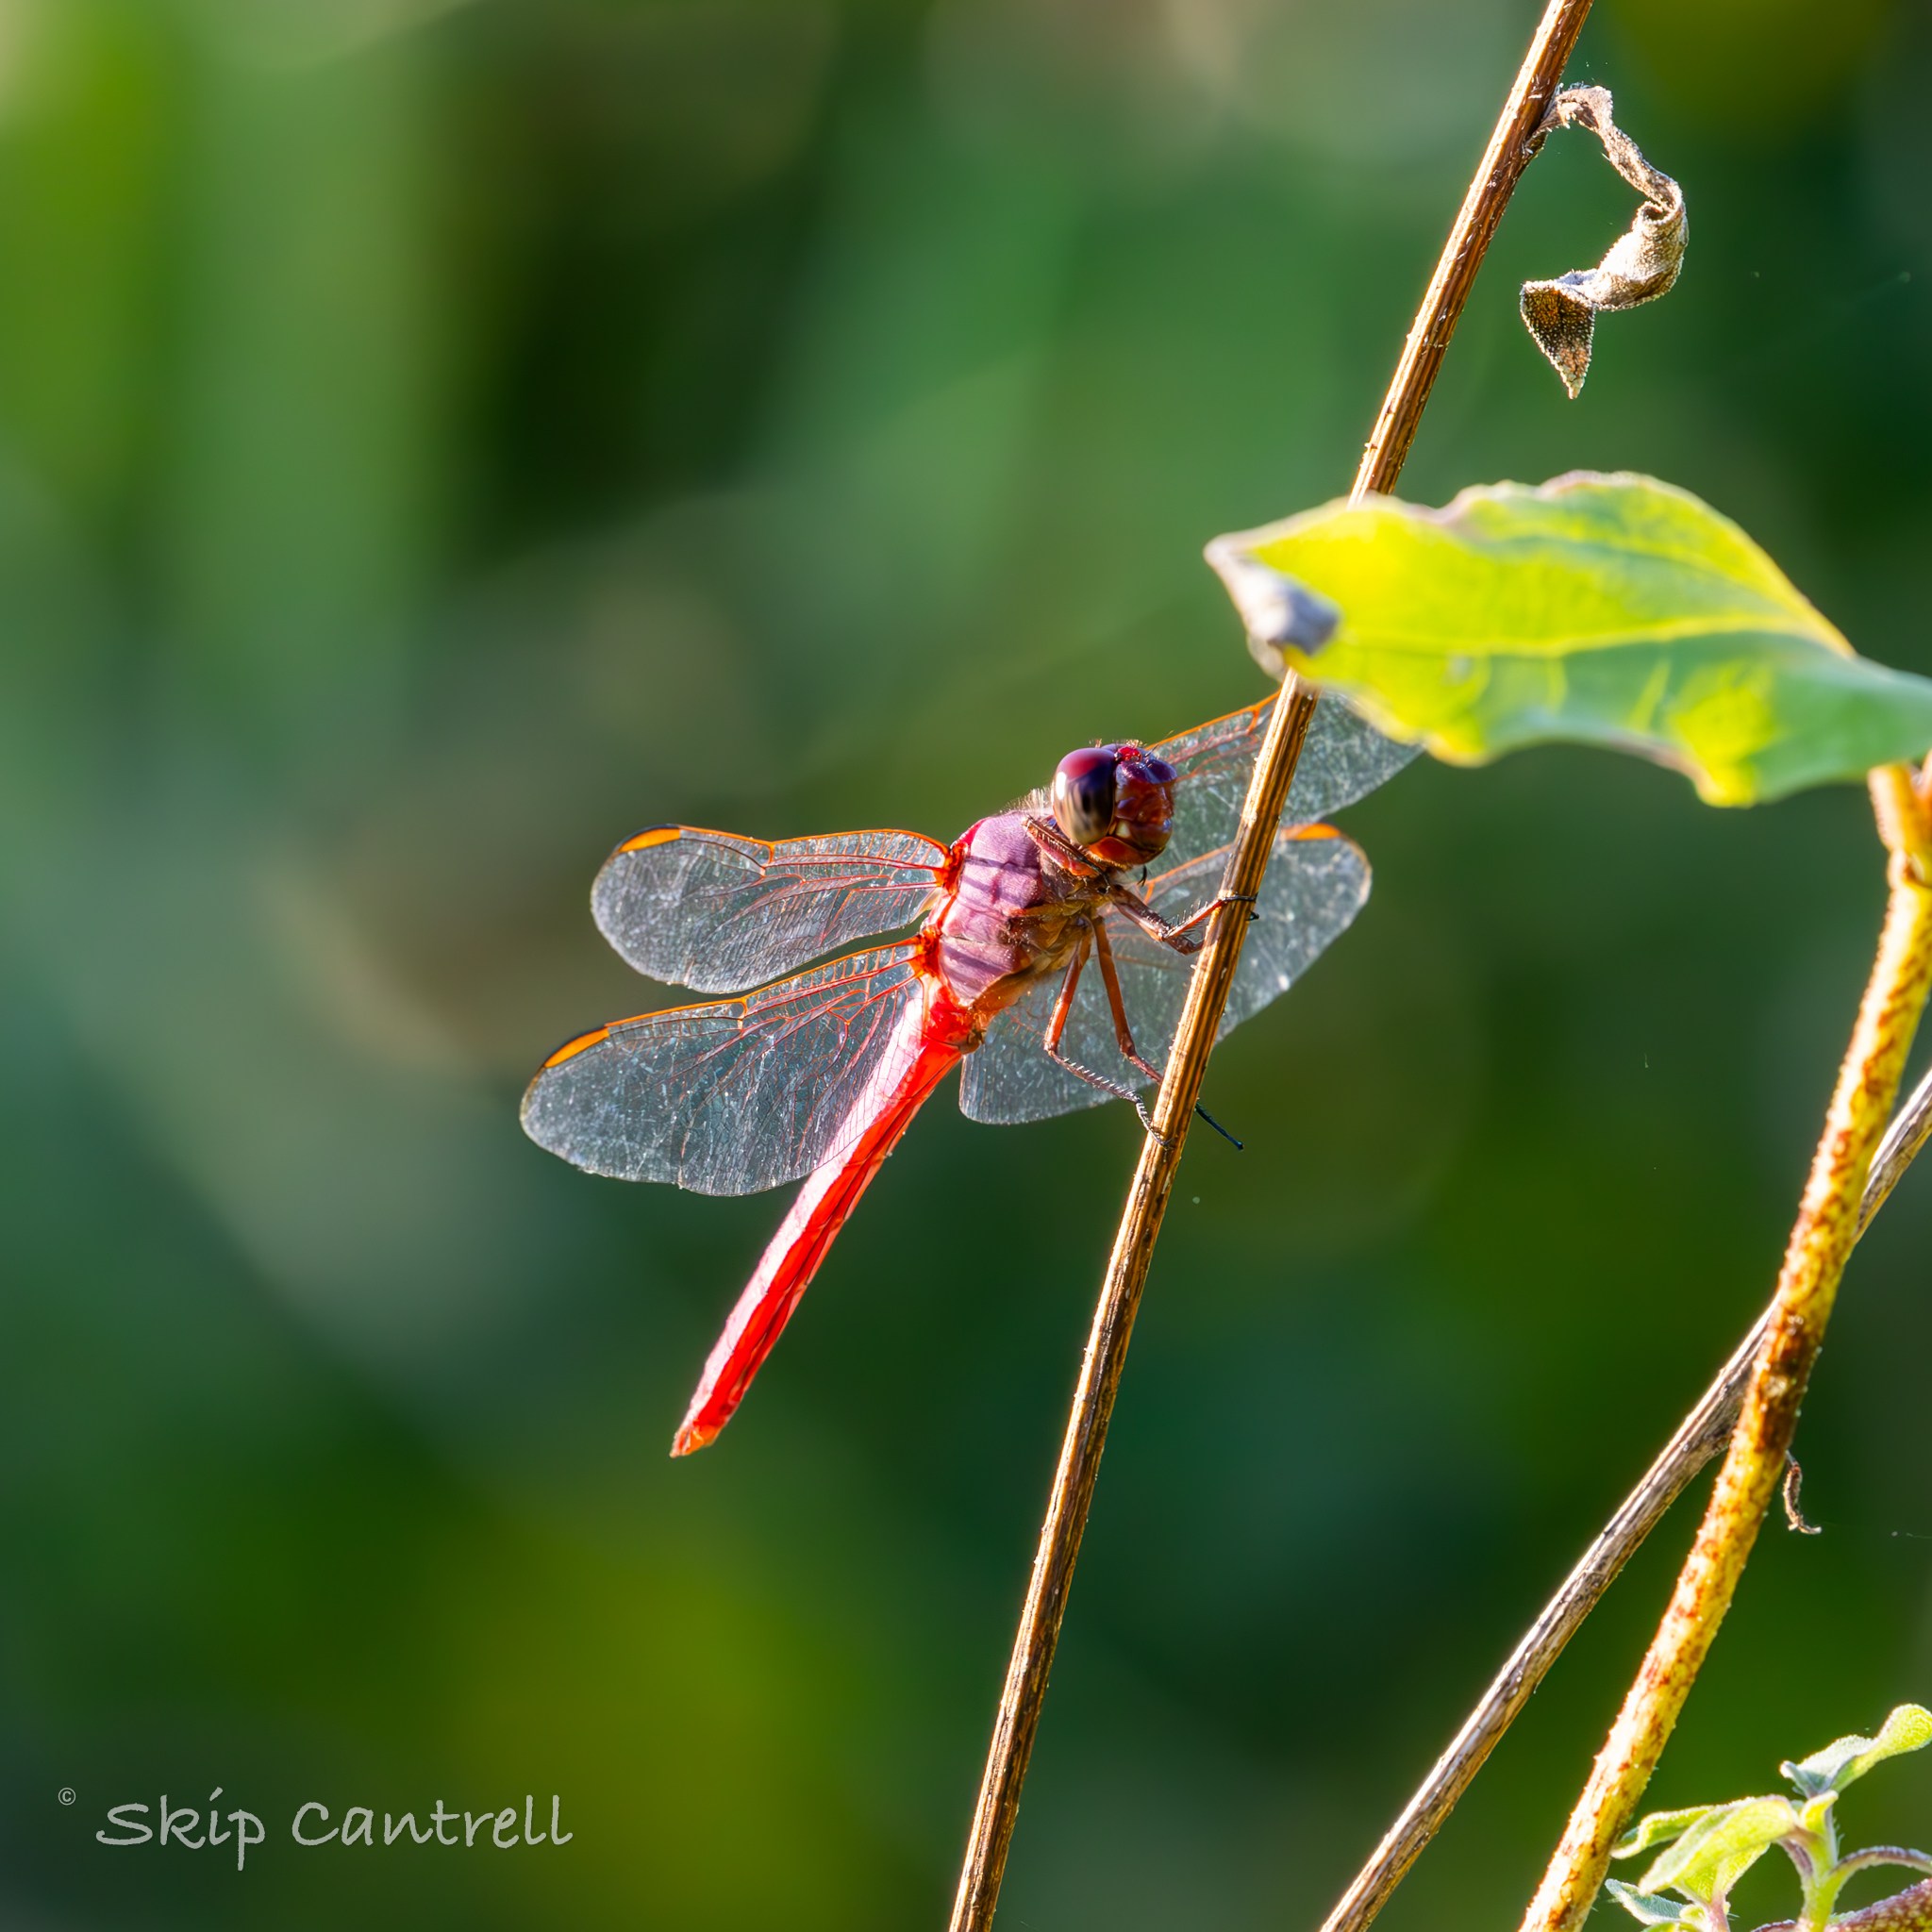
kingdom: Animalia
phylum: Arthropoda
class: Insecta
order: Odonata
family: Libellulidae
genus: Orthemis
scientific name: Orthemis ferruginea
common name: Roseate skimmer
